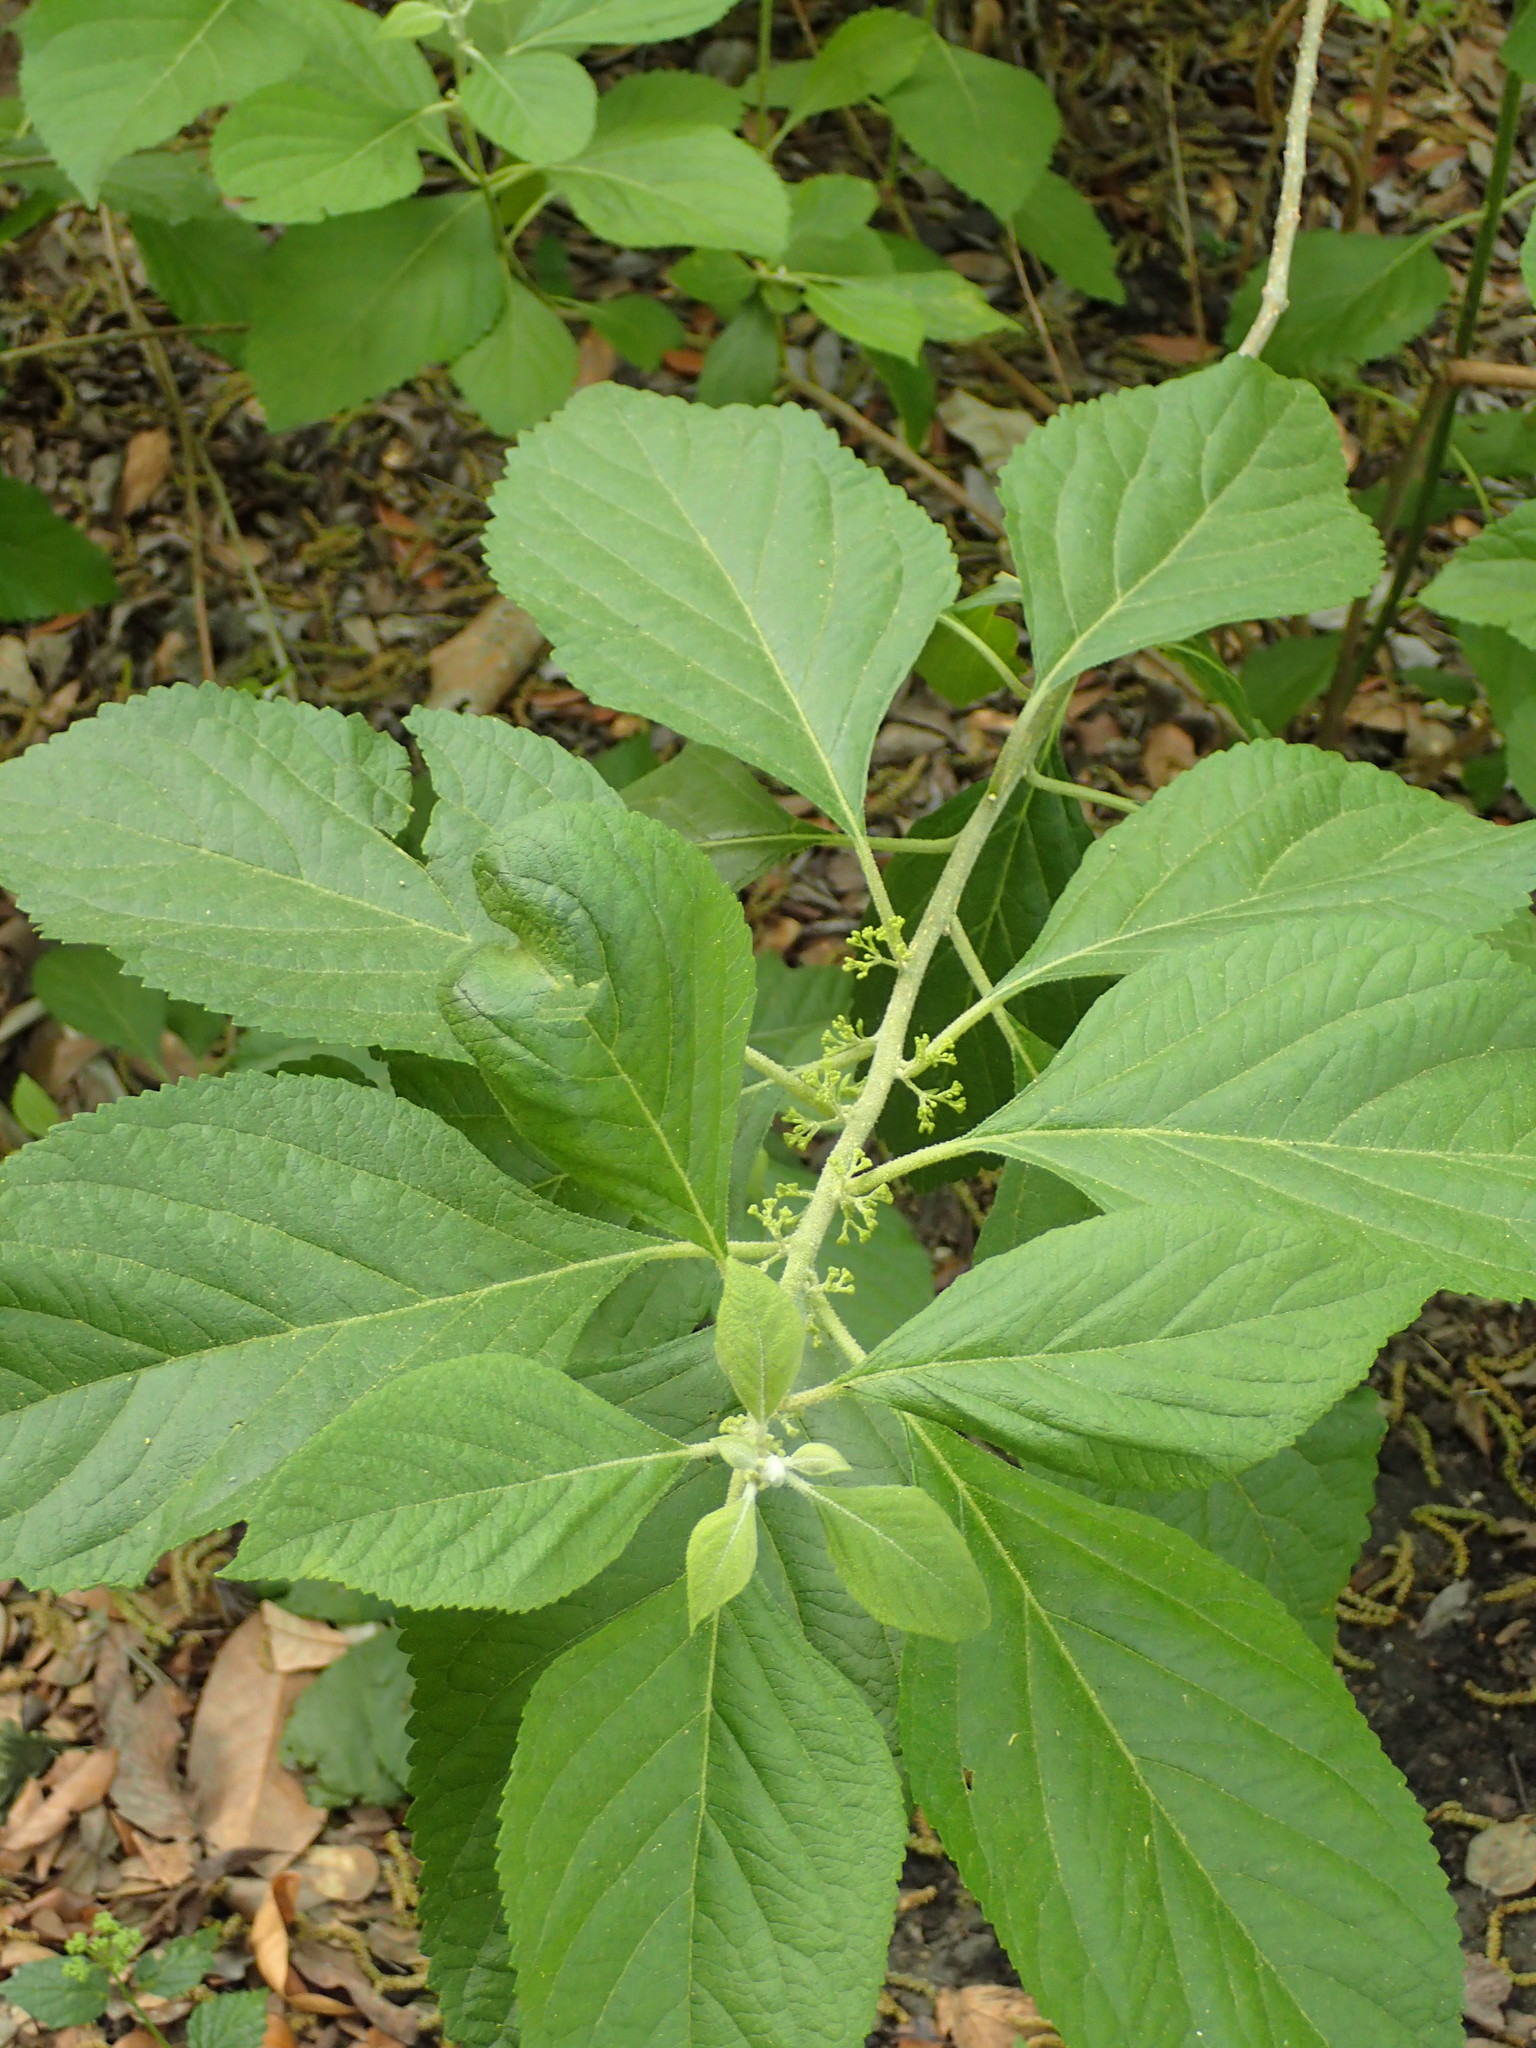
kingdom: Plantae
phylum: Tracheophyta
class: Magnoliopsida
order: Lamiales
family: Lamiaceae
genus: Callicarpa
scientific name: Callicarpa americana
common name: American beautyberry
